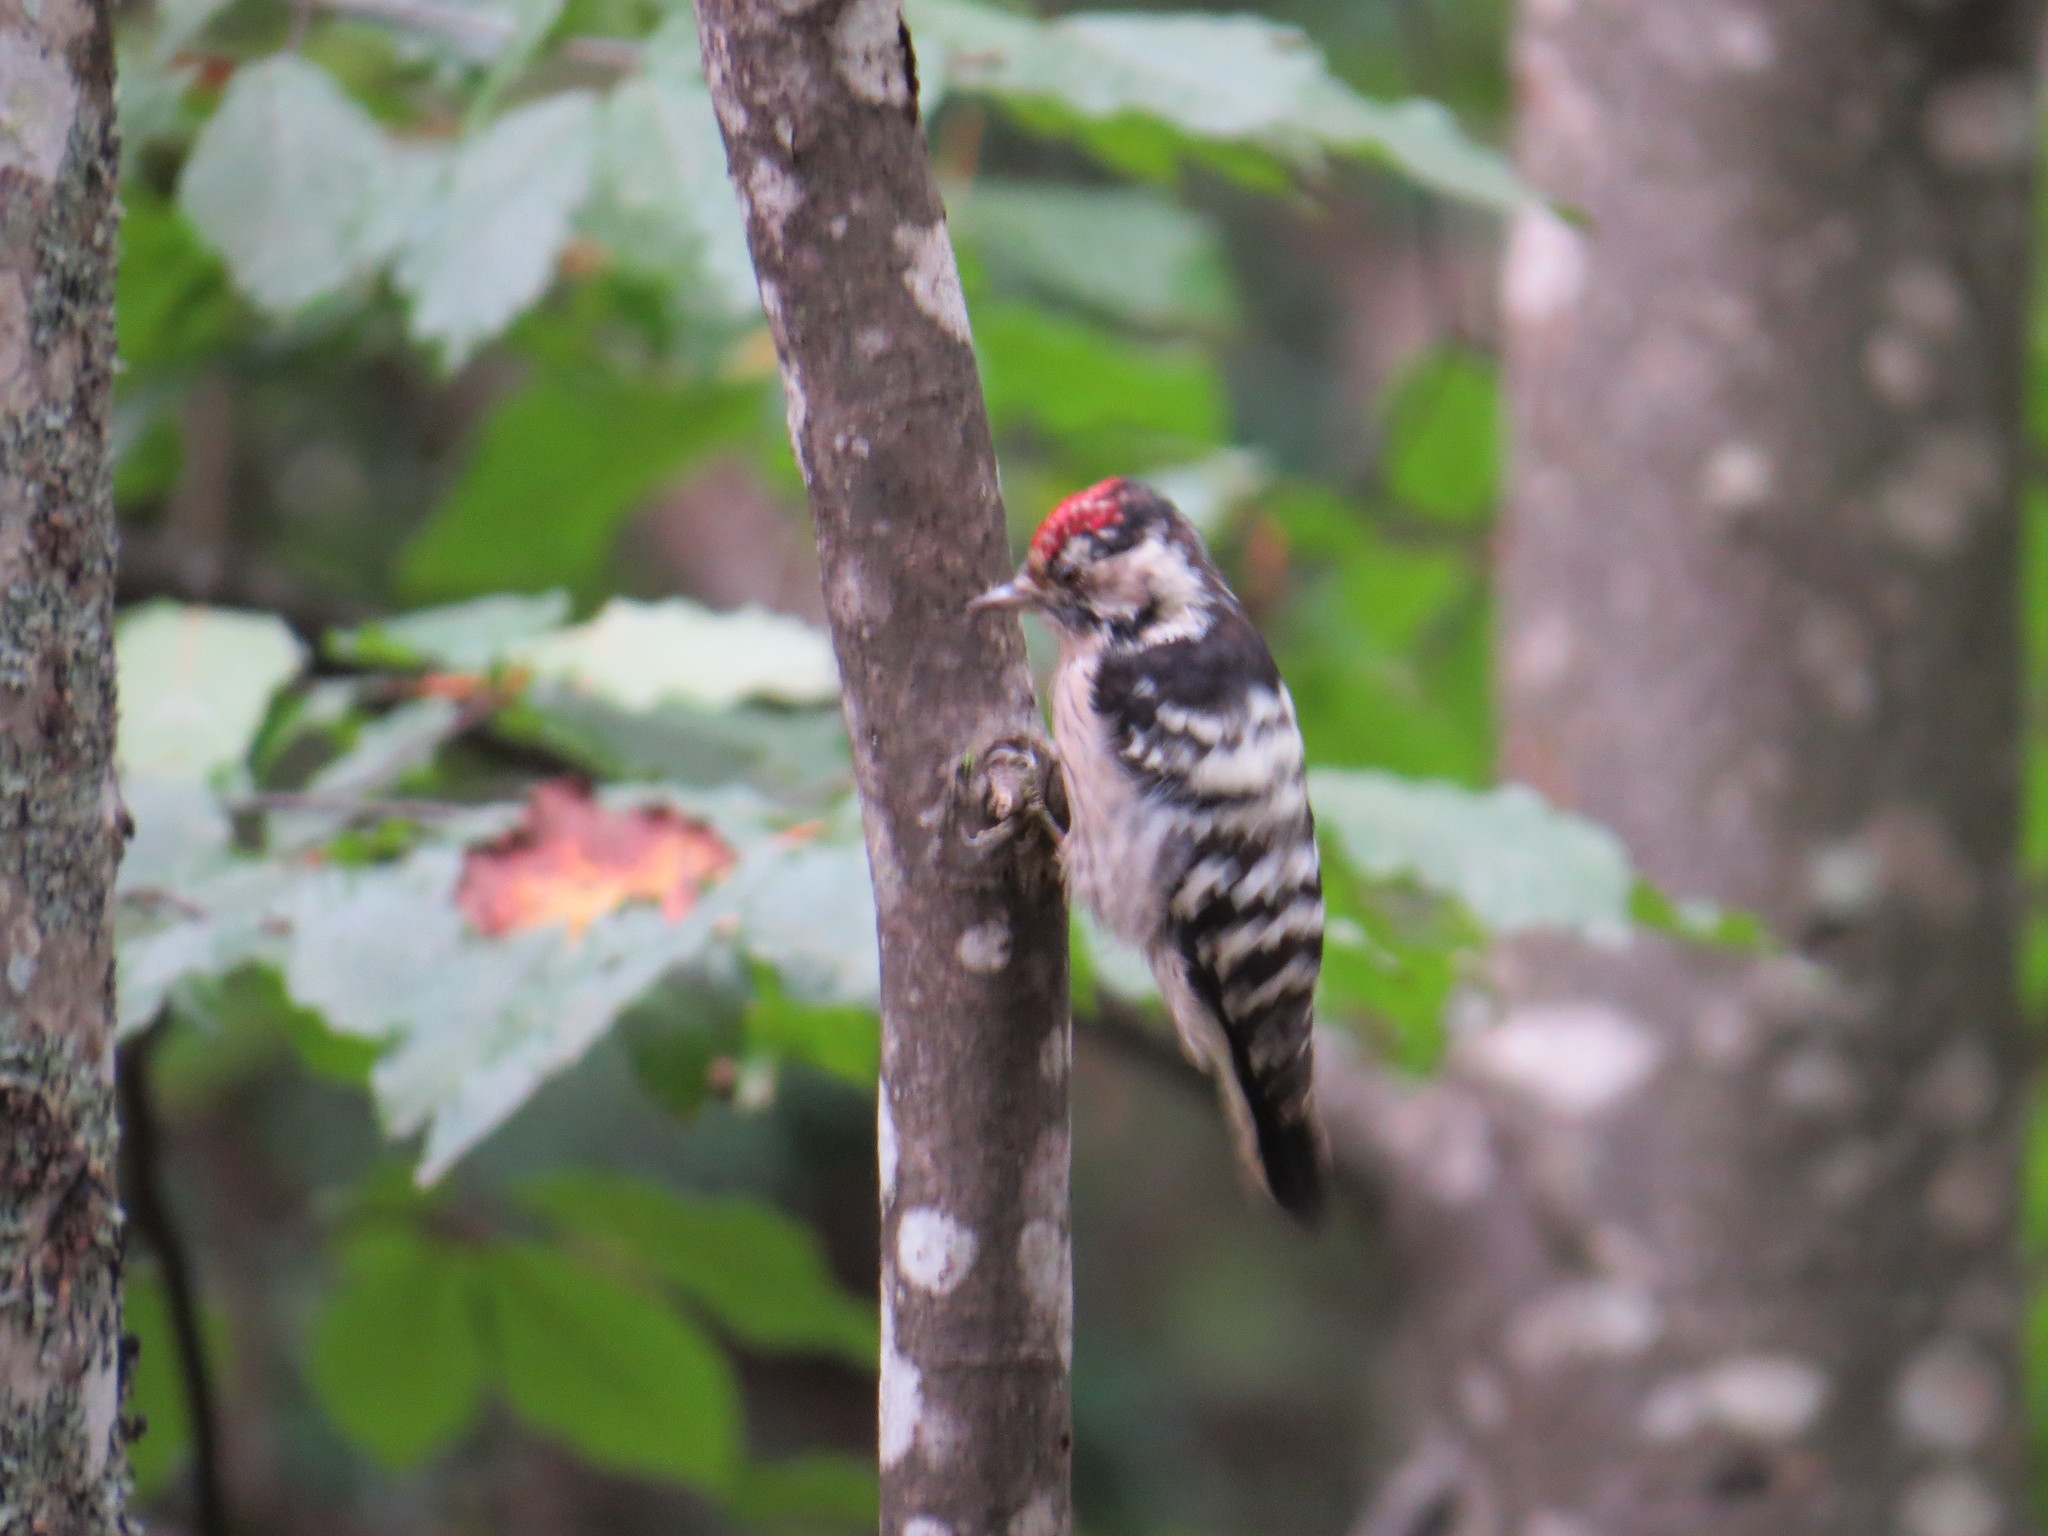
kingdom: Animalia
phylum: Chordata
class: Aves
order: Piciformes
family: Picidae
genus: Dryobates
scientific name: Dryobates minor
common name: Lesser spotted woodpecker
